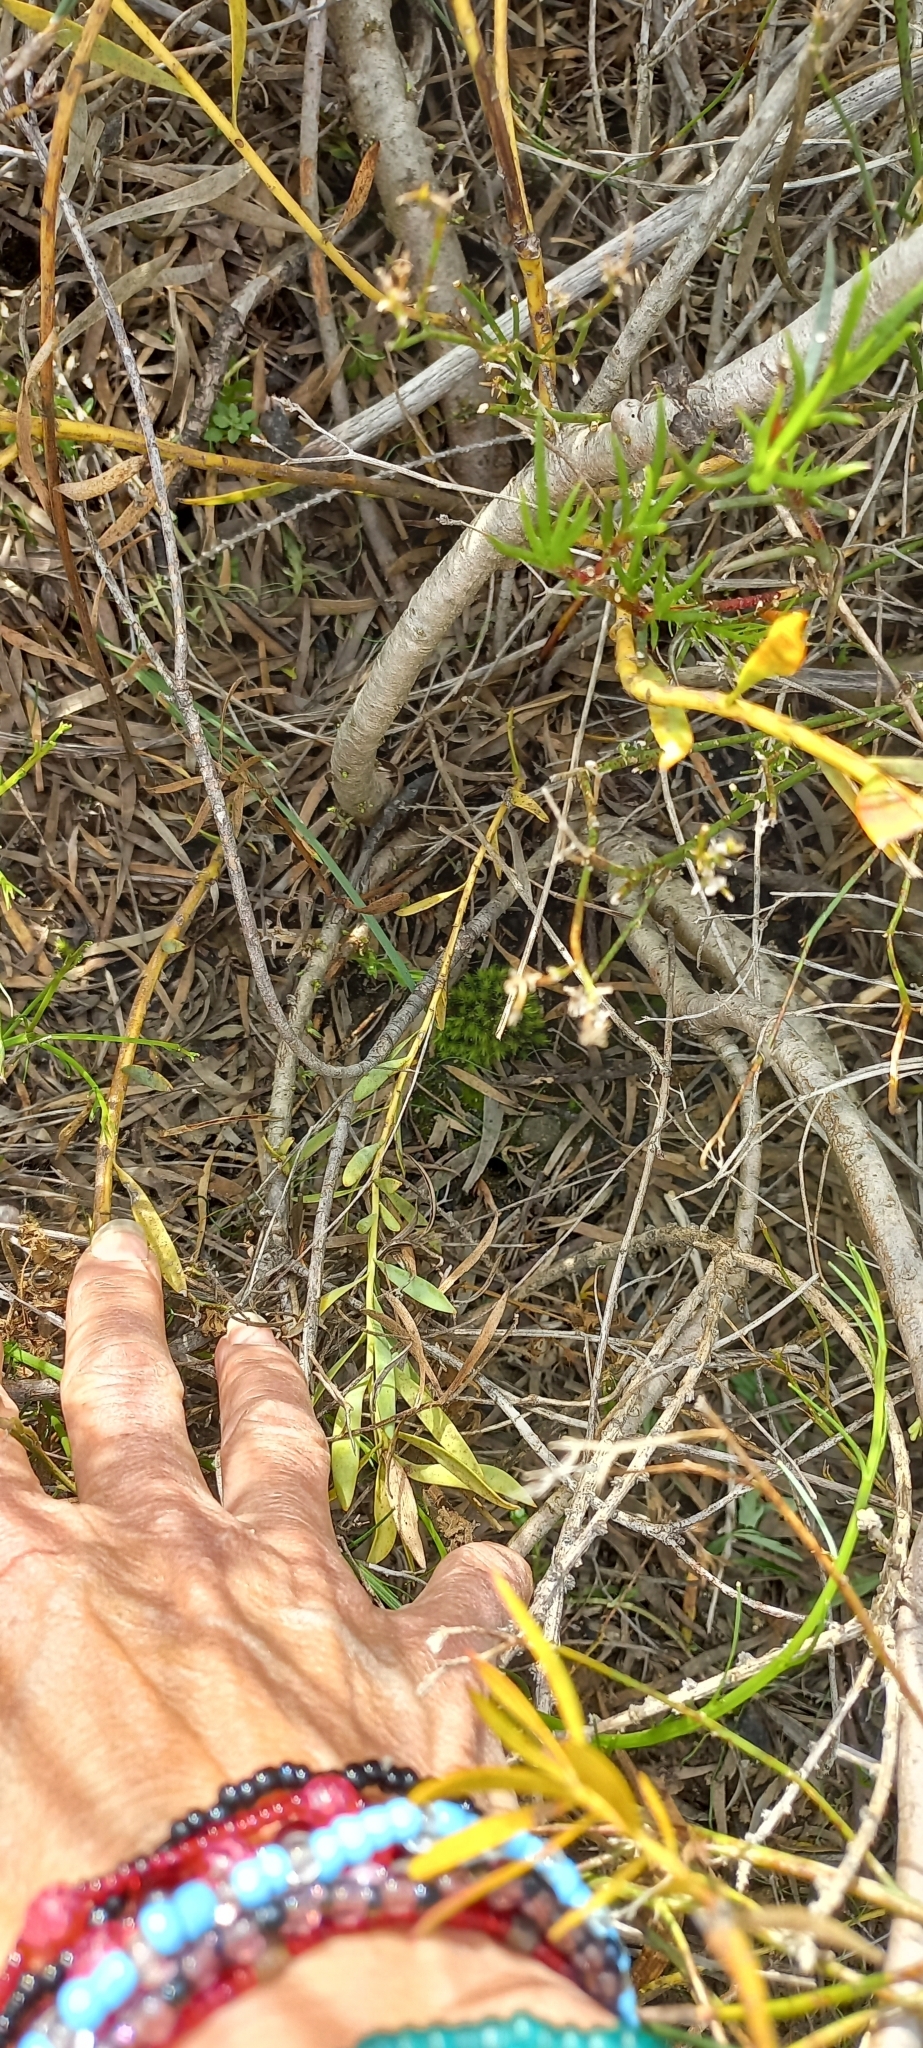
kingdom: Plantae
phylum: Tracheophyta
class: Magnoliopsida
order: Proteales
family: Proteaceae
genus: Leucadendron
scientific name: Leucadendron salignum
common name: Common sunshine conebush
